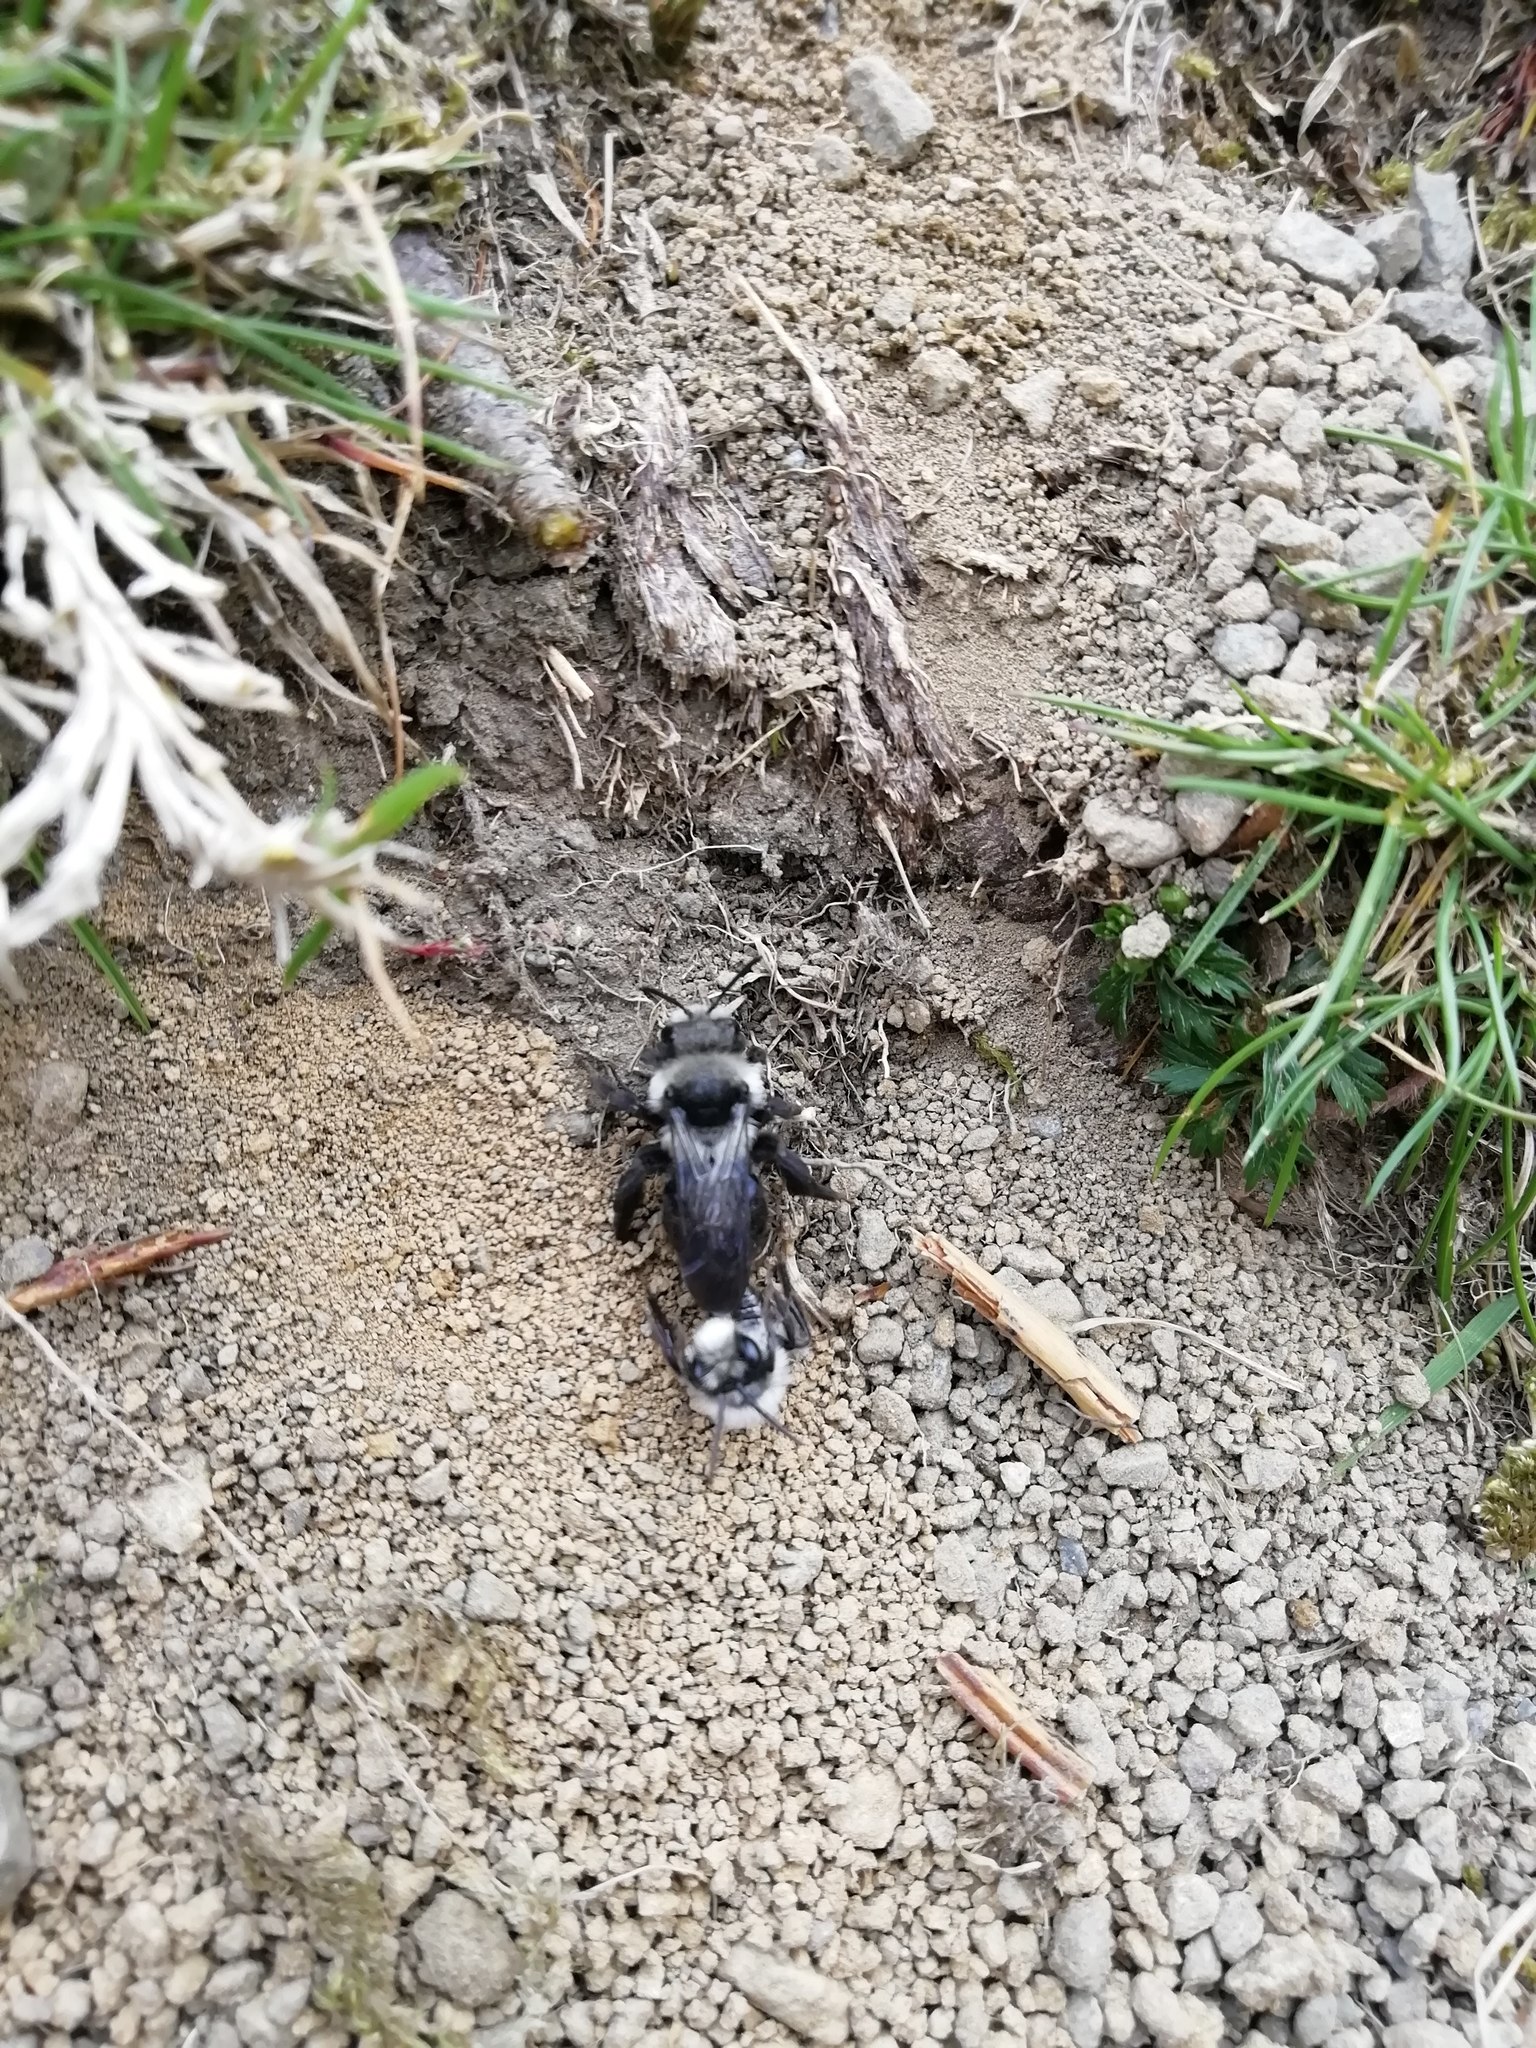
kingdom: Animalia
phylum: Arthropoda
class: Insecta
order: Hymenoptera
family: Andrenidae
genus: Andrena
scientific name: Andrena cineraria
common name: Ashy mining bee
